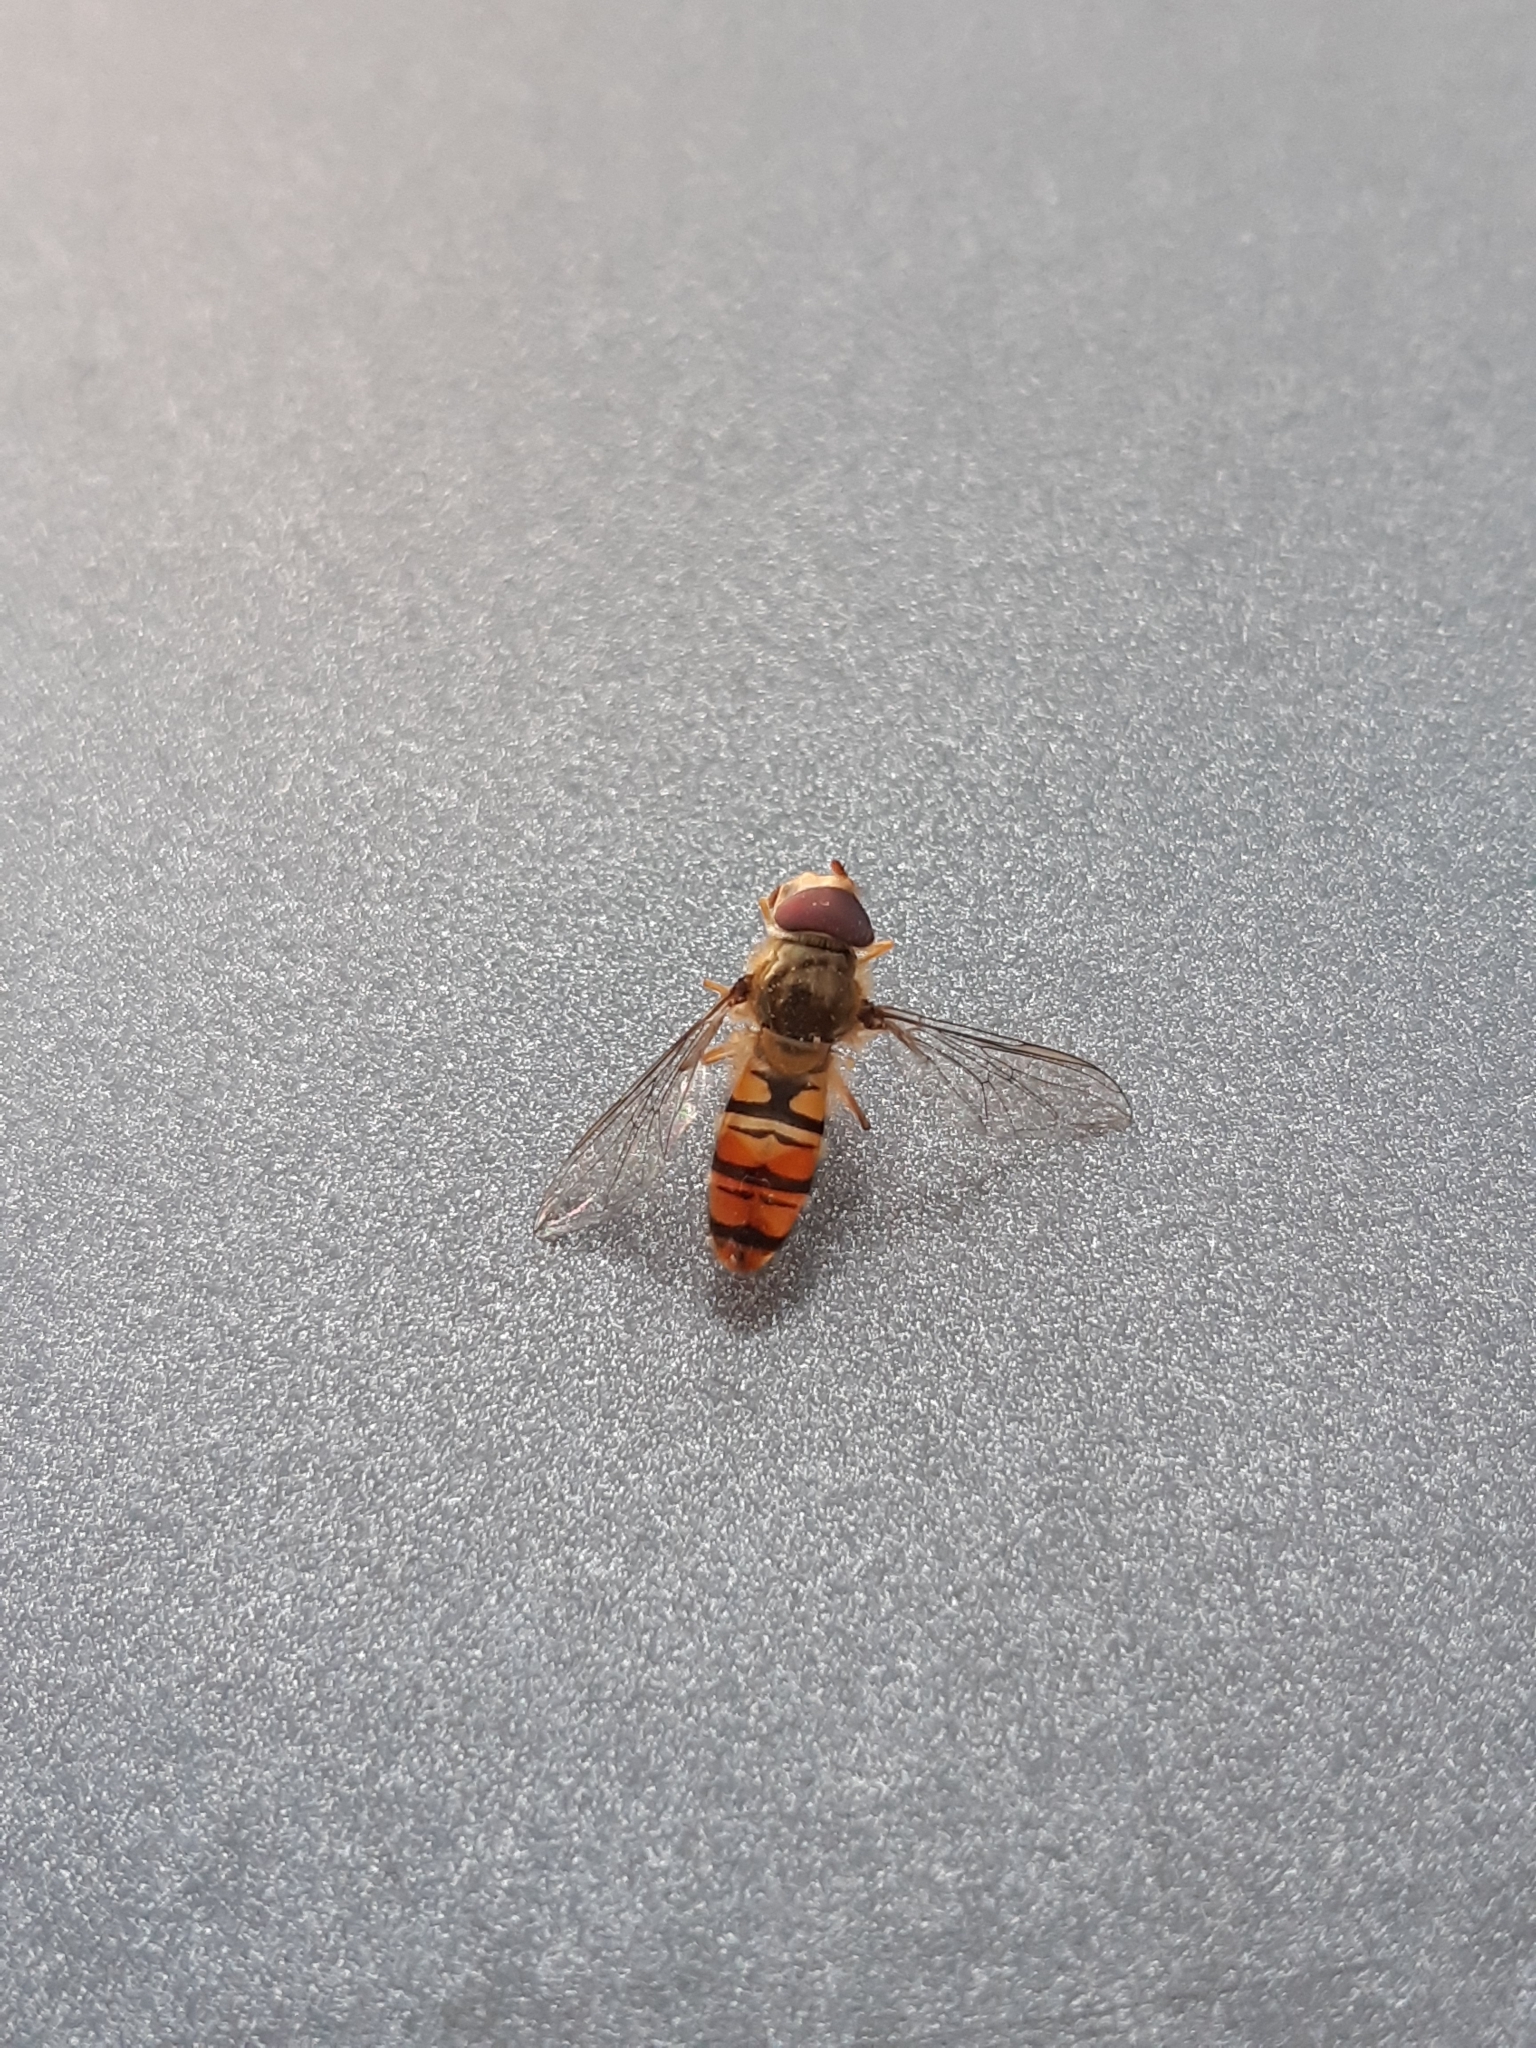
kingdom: Animalia
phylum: Arthropoda
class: Insecta
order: Diptera
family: Syrphidae
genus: Episyrphus
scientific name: Episyrphus balteatus
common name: Marmalade hoverfly
